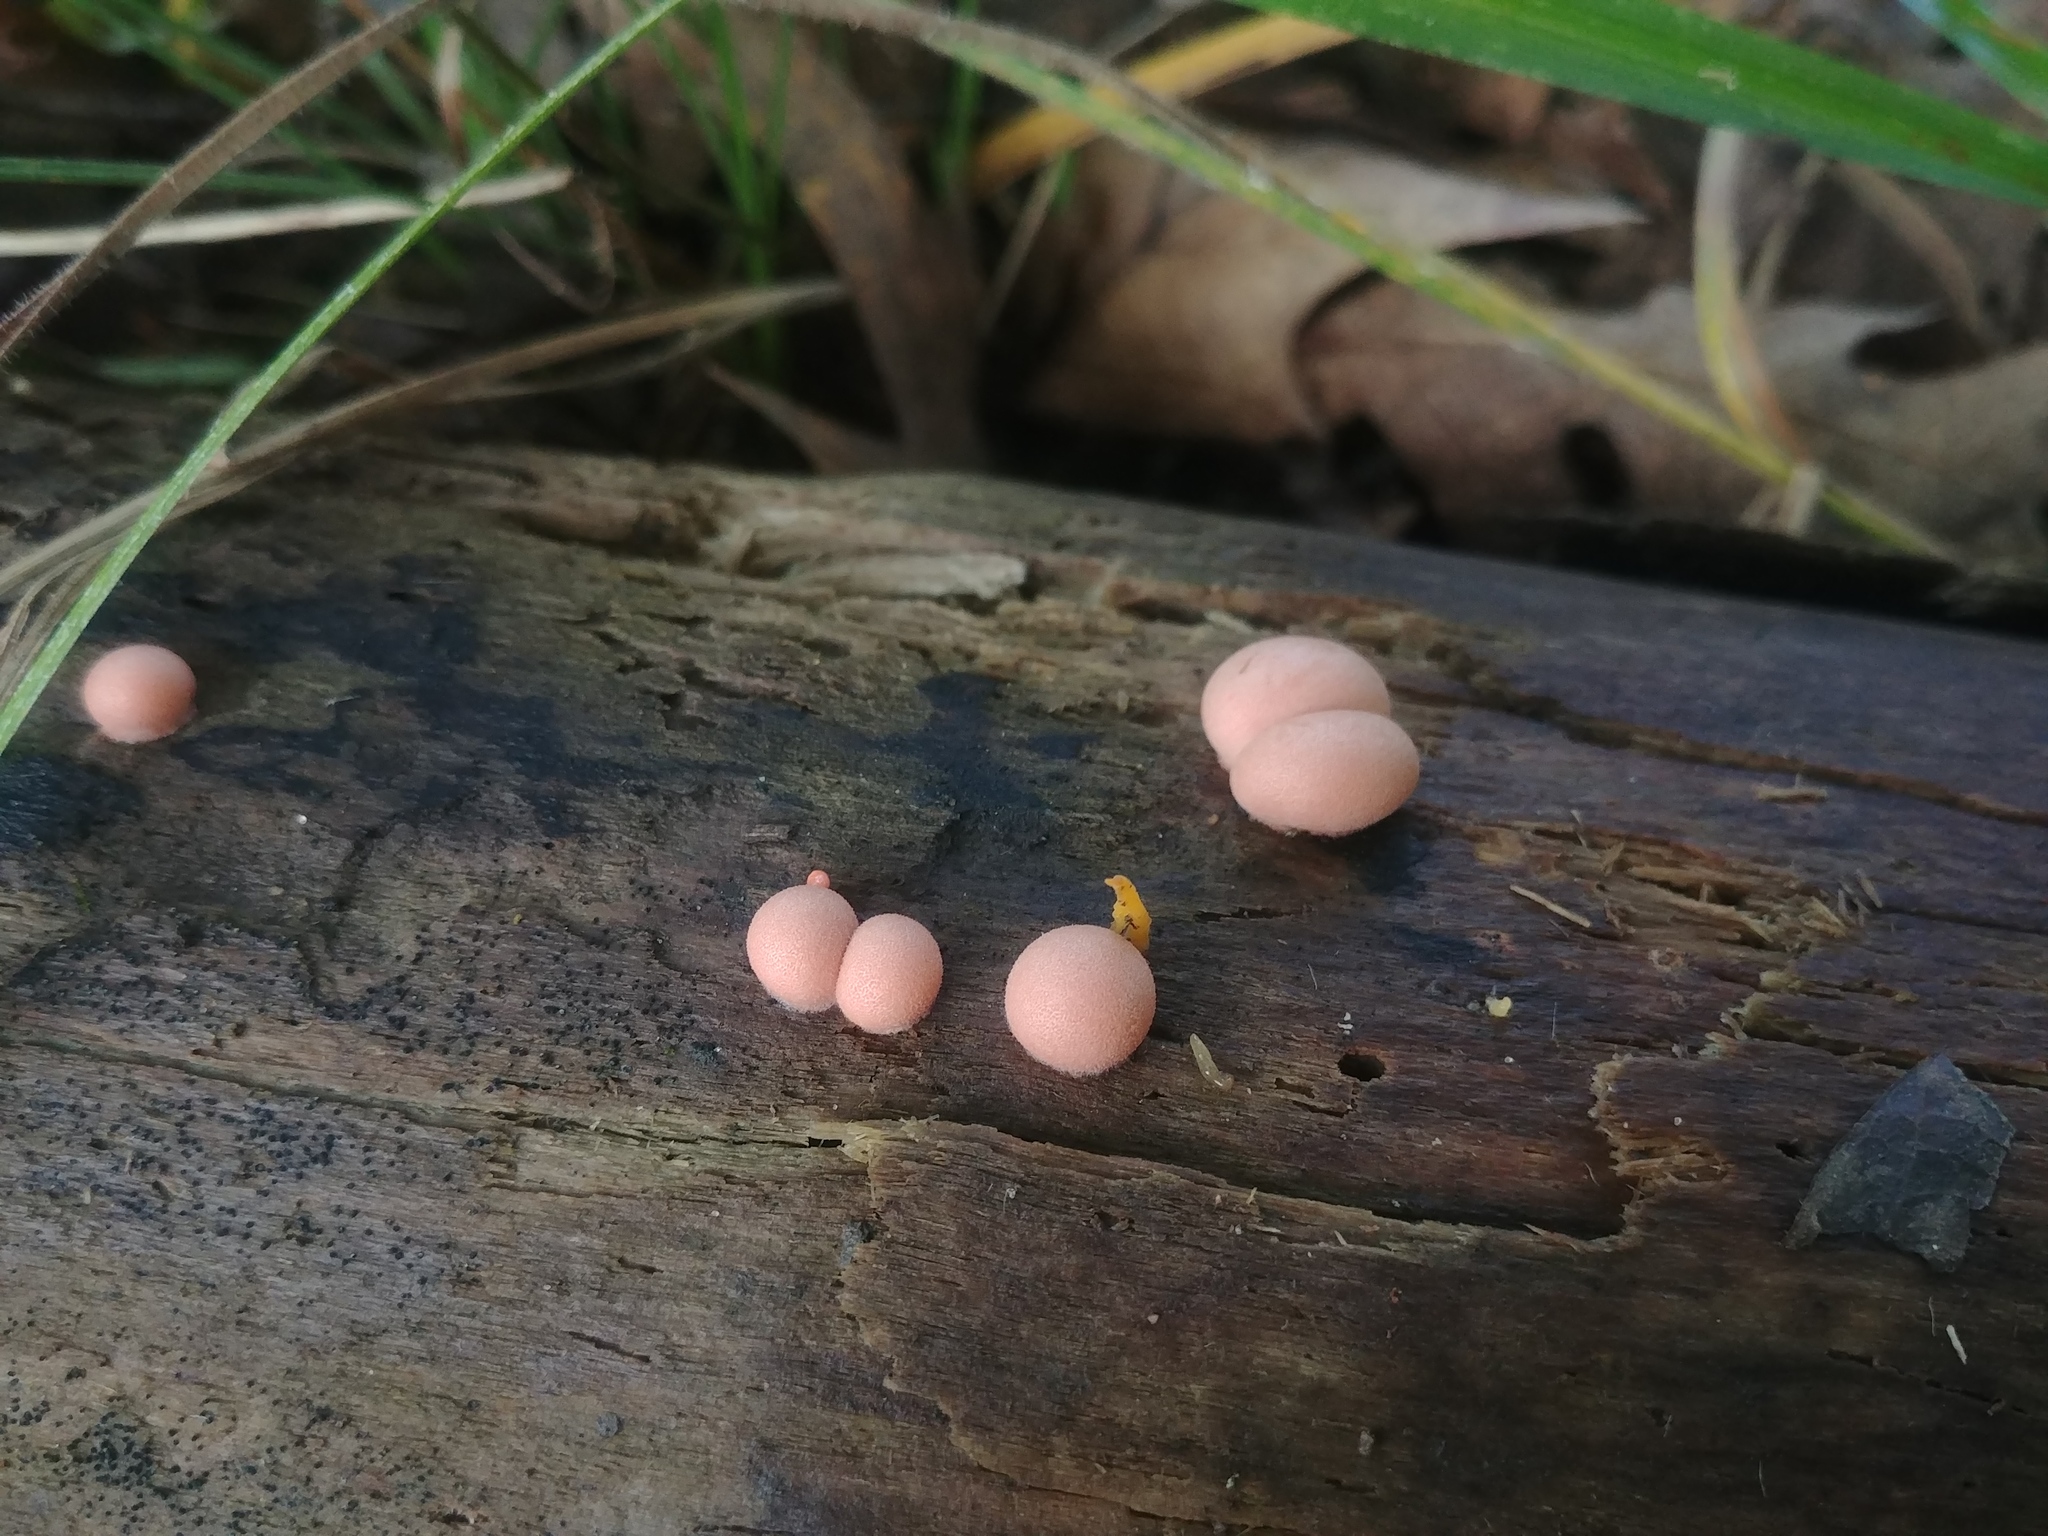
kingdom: Protozoa
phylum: Mycetozoa
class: Myxomycetes
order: Cribrariales
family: Tubiferaceae
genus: Lycogala
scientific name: Lycogala epidendrum
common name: Wolf's milk
